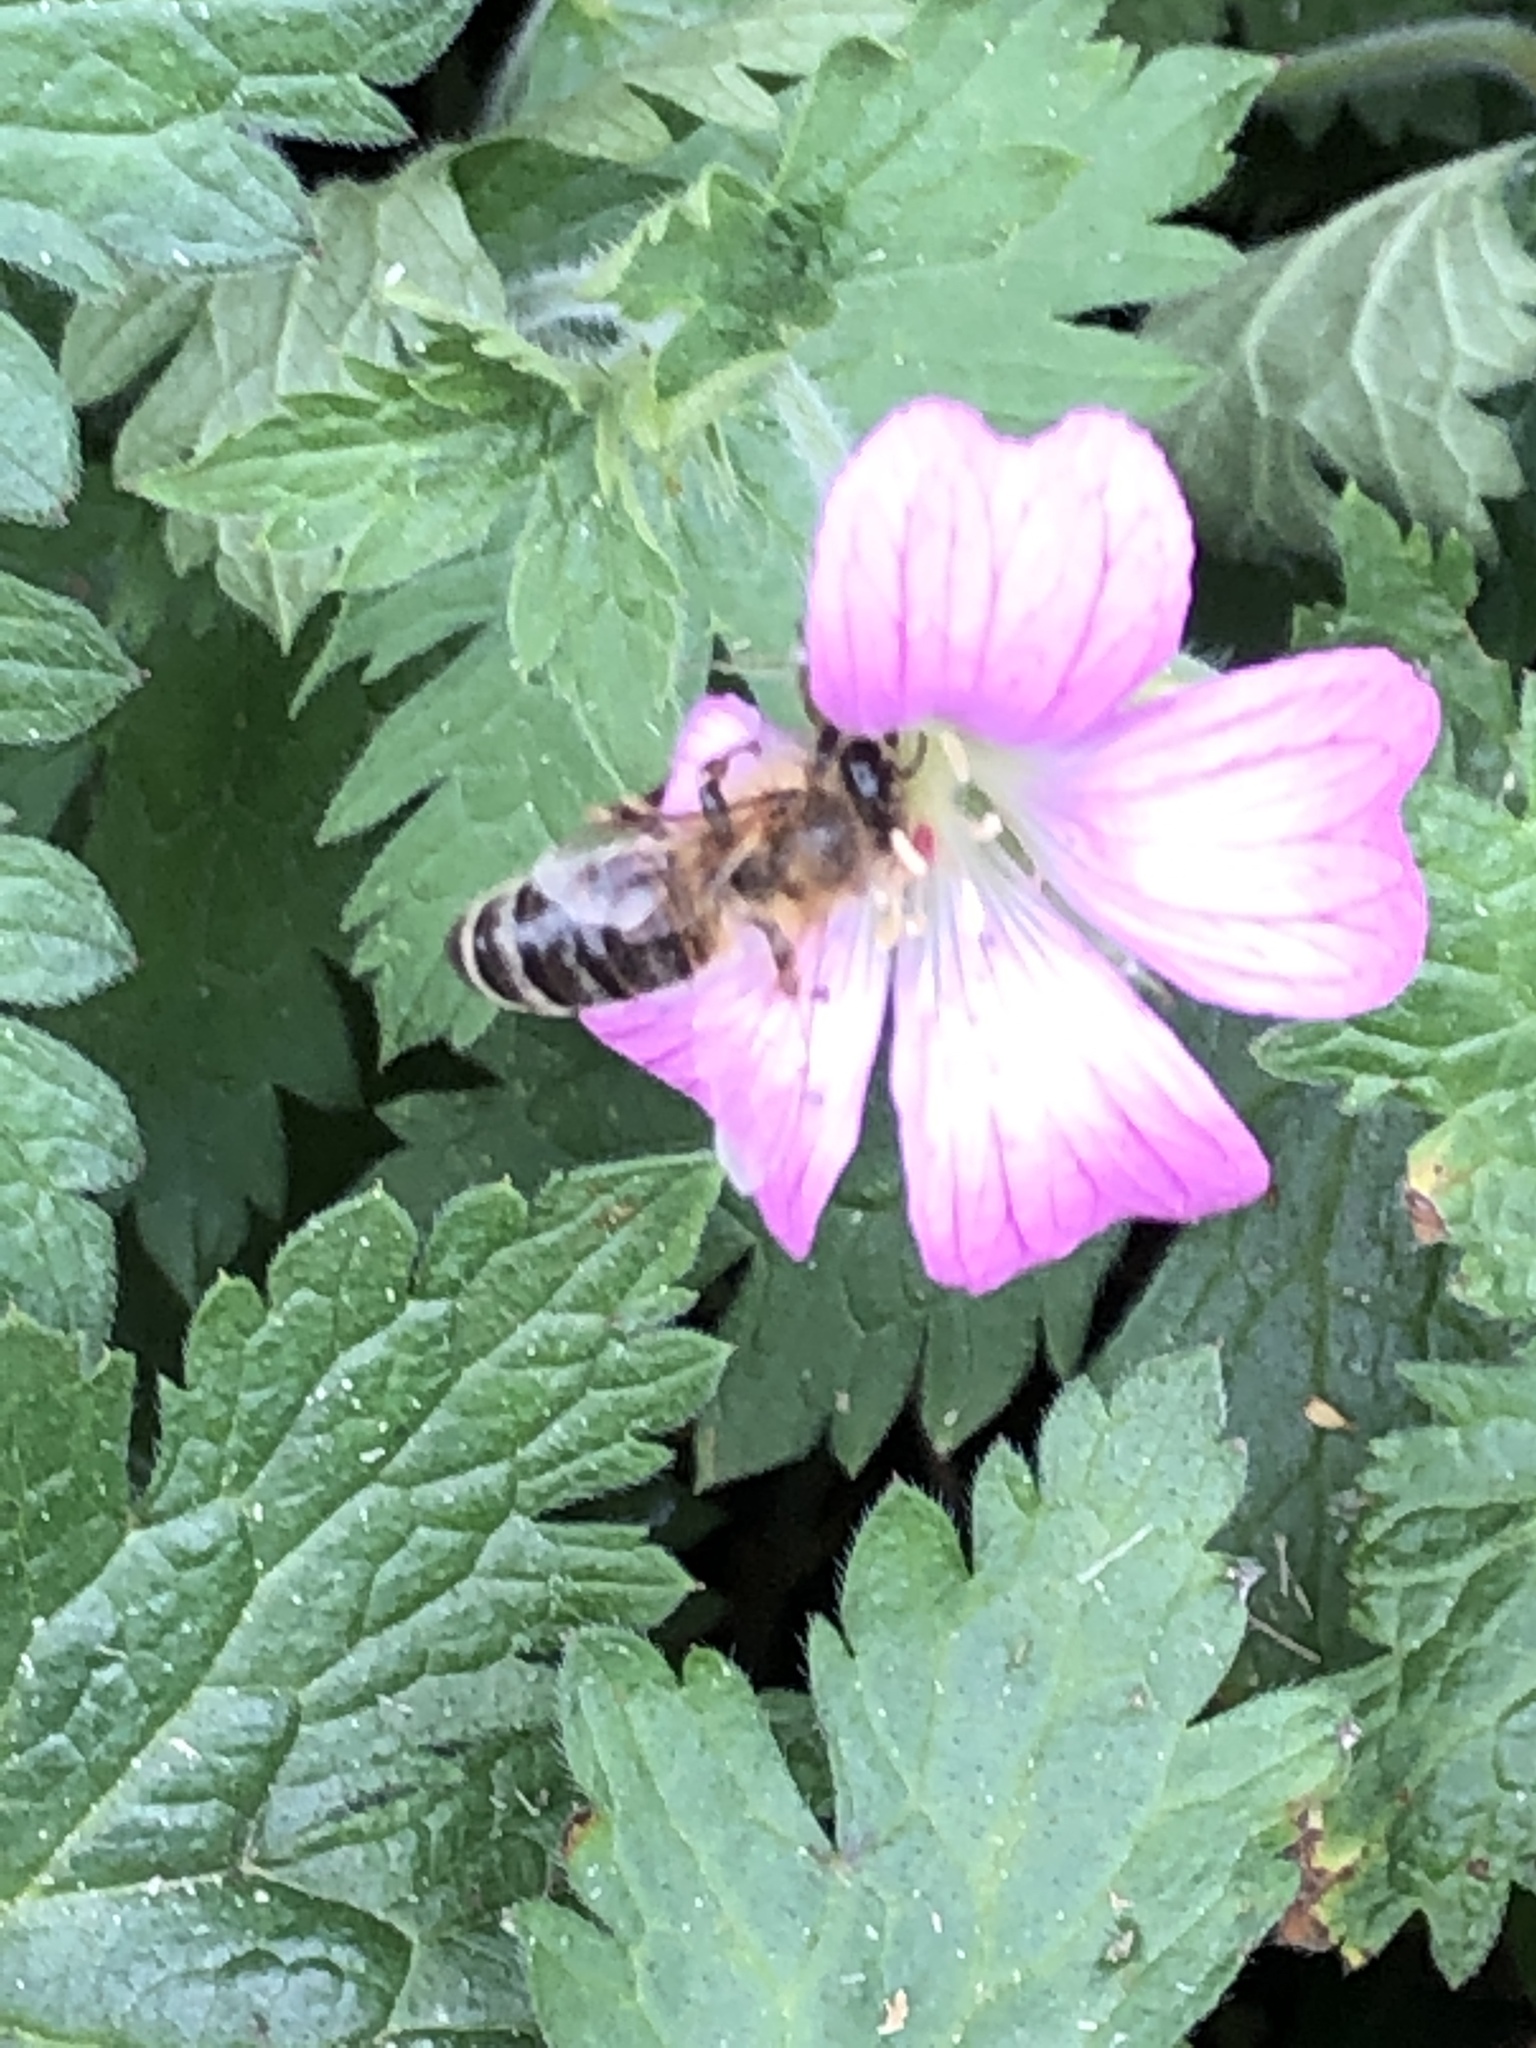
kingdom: Animalia
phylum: Arthropoda
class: Insecta
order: Hymenoptera
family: Apidae
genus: Apis
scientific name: Apis mellifera
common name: Honey bee
